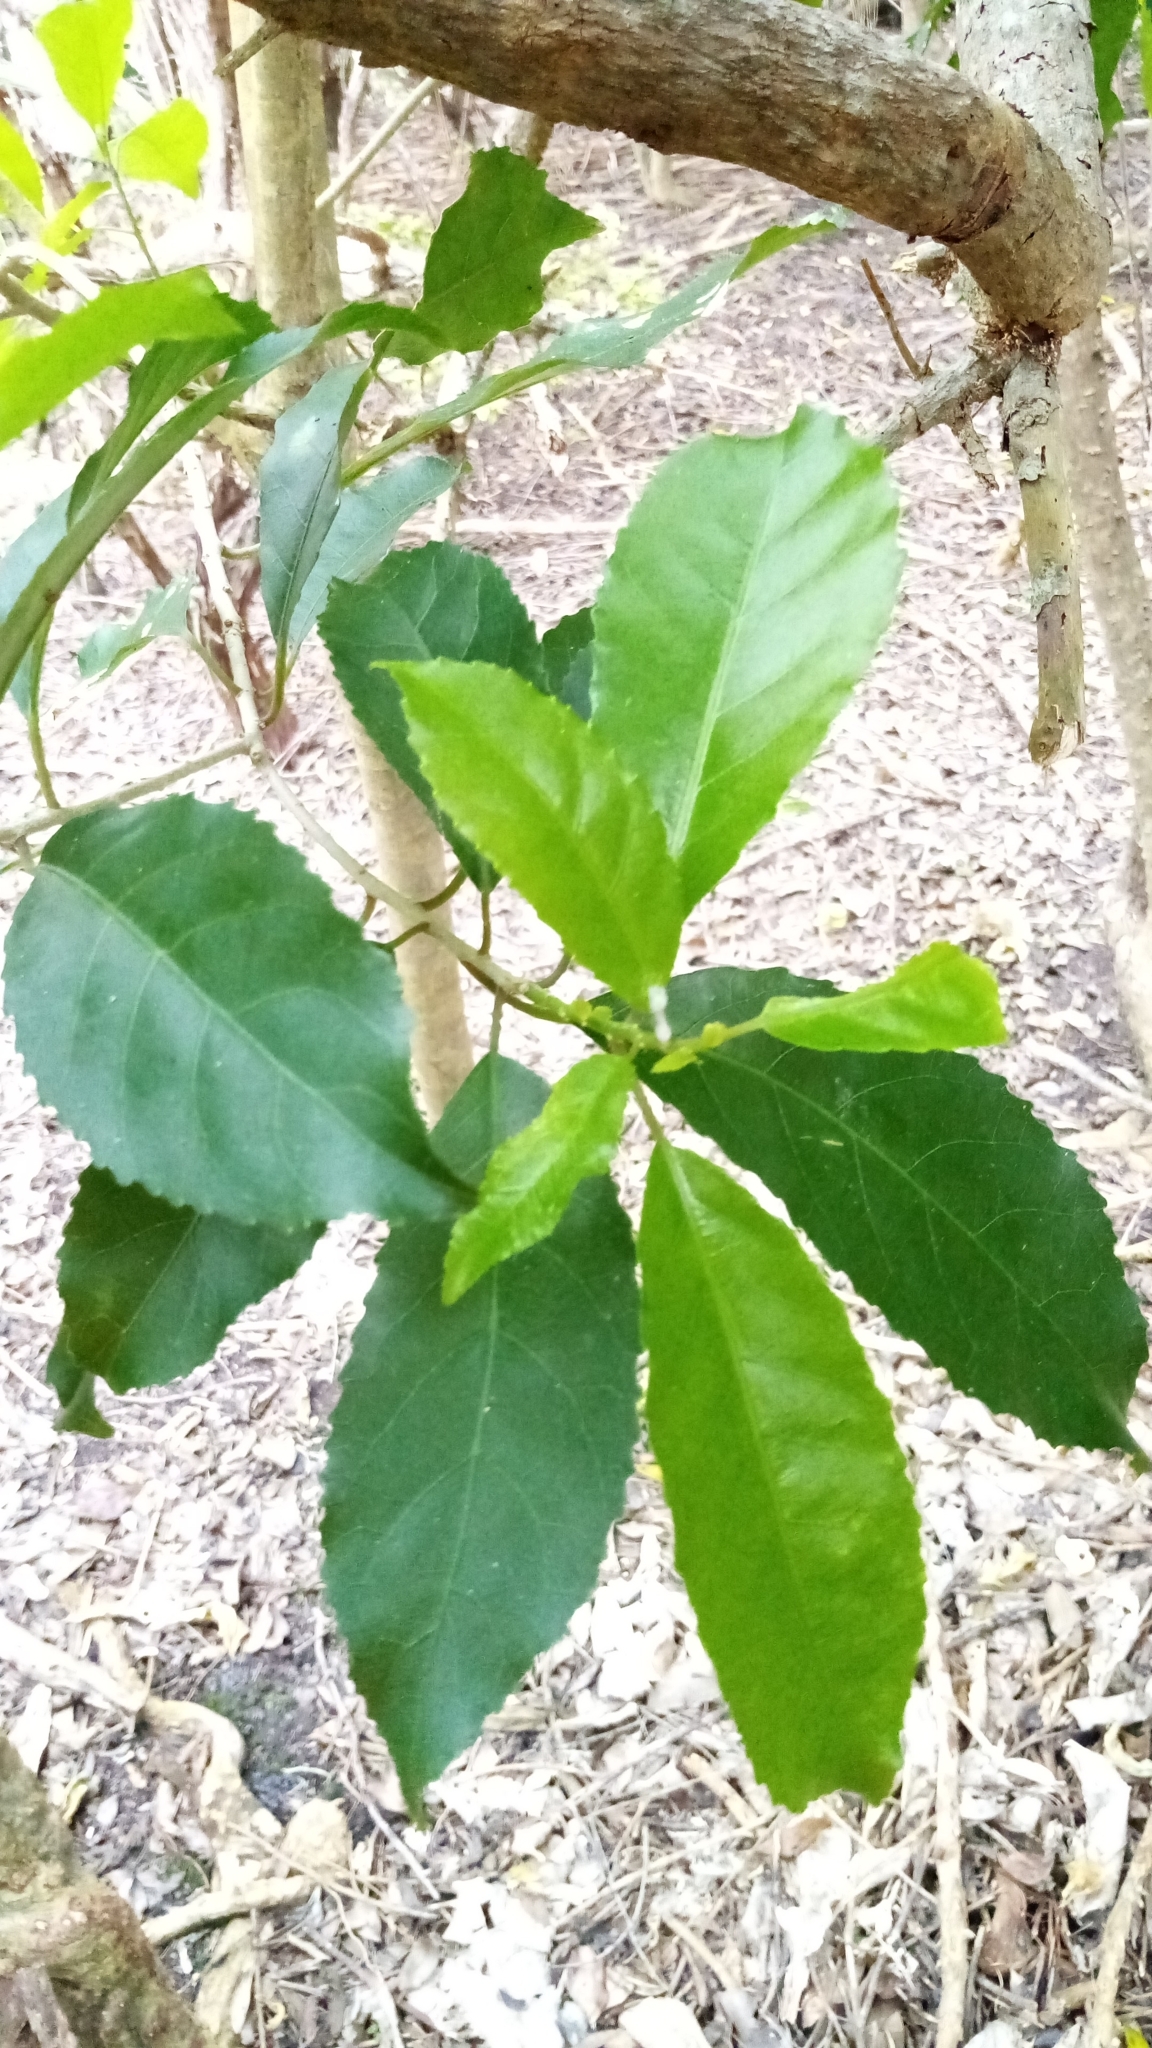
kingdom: Plantae
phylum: Tracheophyta
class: Magnoliopsida
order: Malpighiales
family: Violaceae
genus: Melicytus
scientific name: Melicytus ramiflorus
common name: Mahoe
